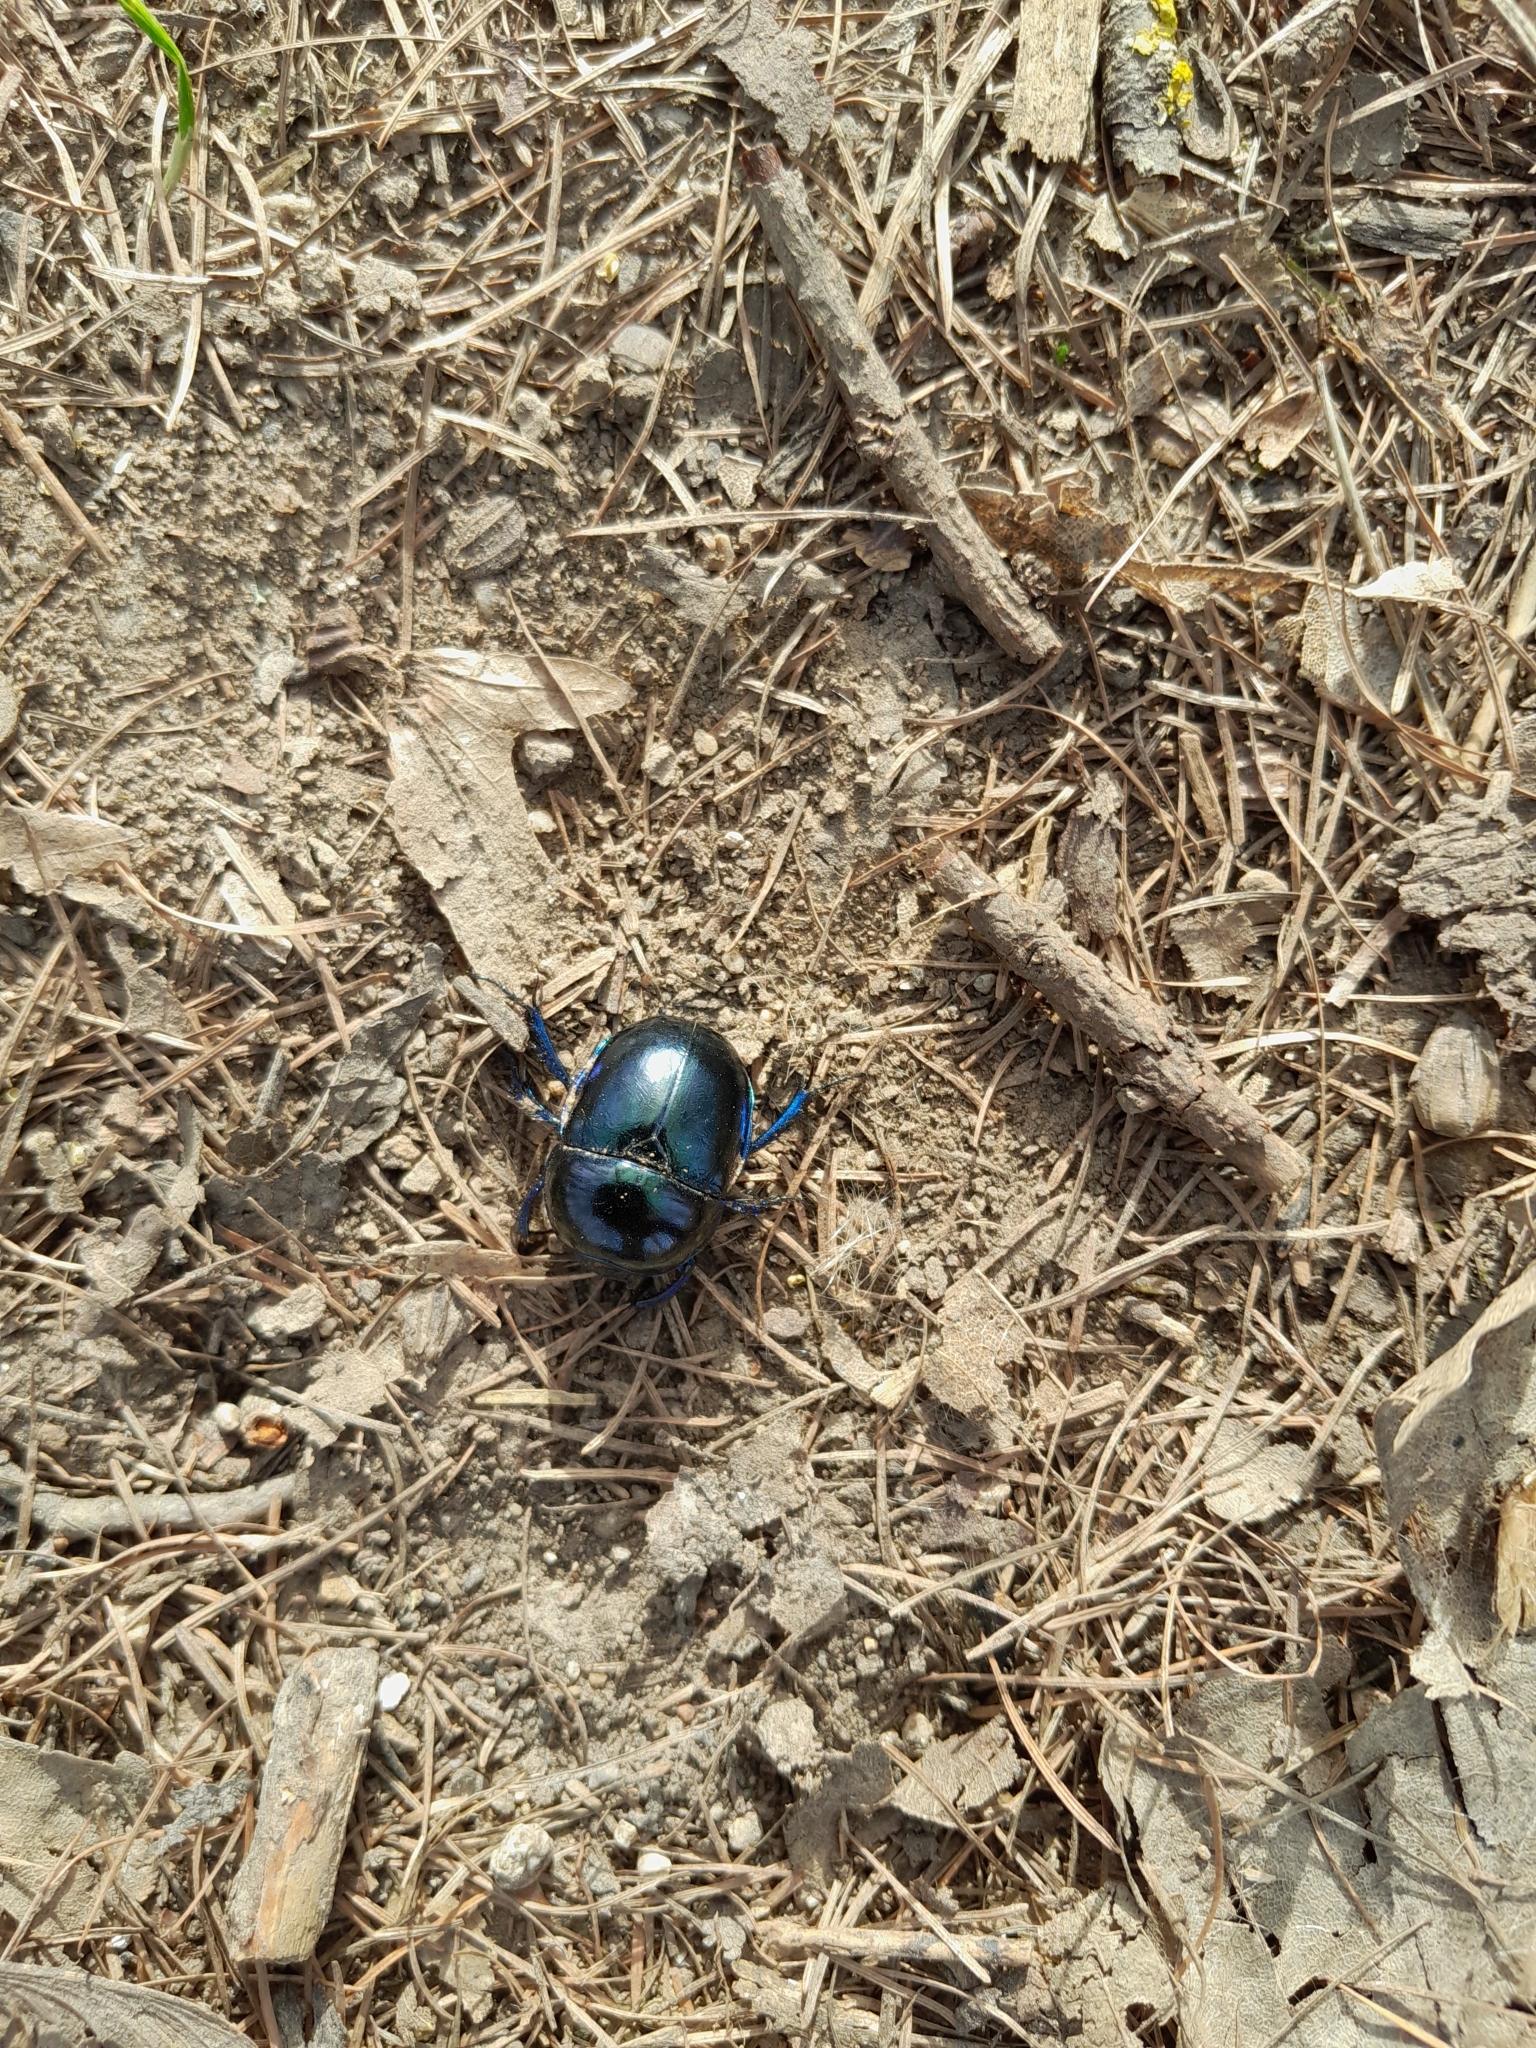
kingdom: Animalia
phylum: Arthropoda
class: Insecta
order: Coleoptera
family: Geotrupidae
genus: Trypocopris
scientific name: Trypocopris vernalis
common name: Spring dumbledor
